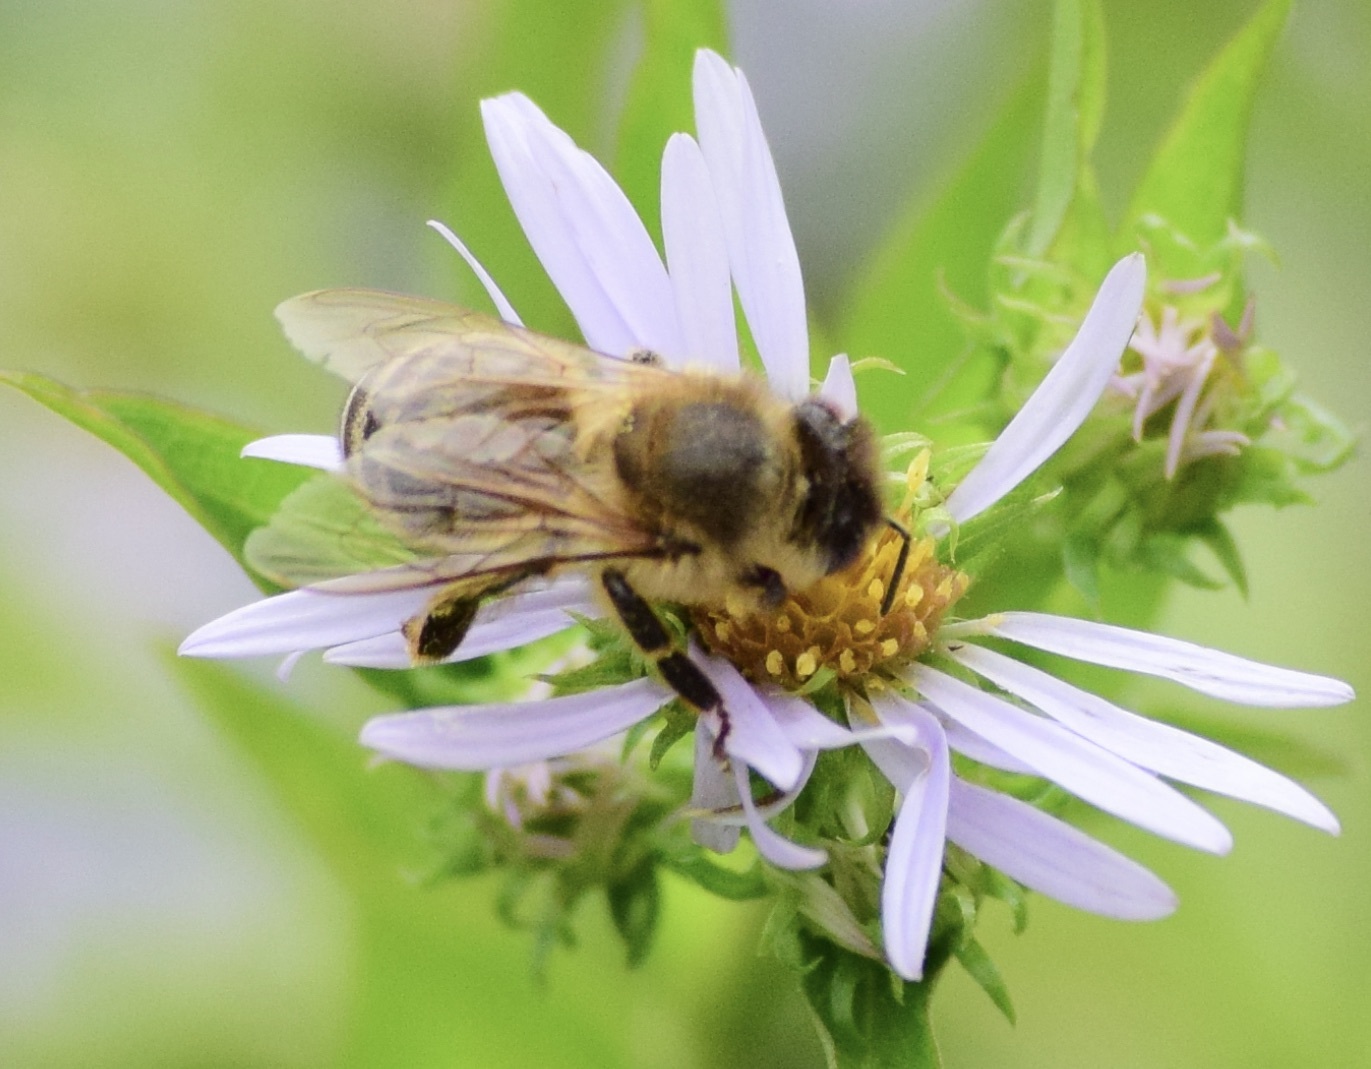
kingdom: Animalia
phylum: Arthropoda
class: Insecta
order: Hymenoptera
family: Apidae
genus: Apis
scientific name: Apis mellifera
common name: Honey bee
